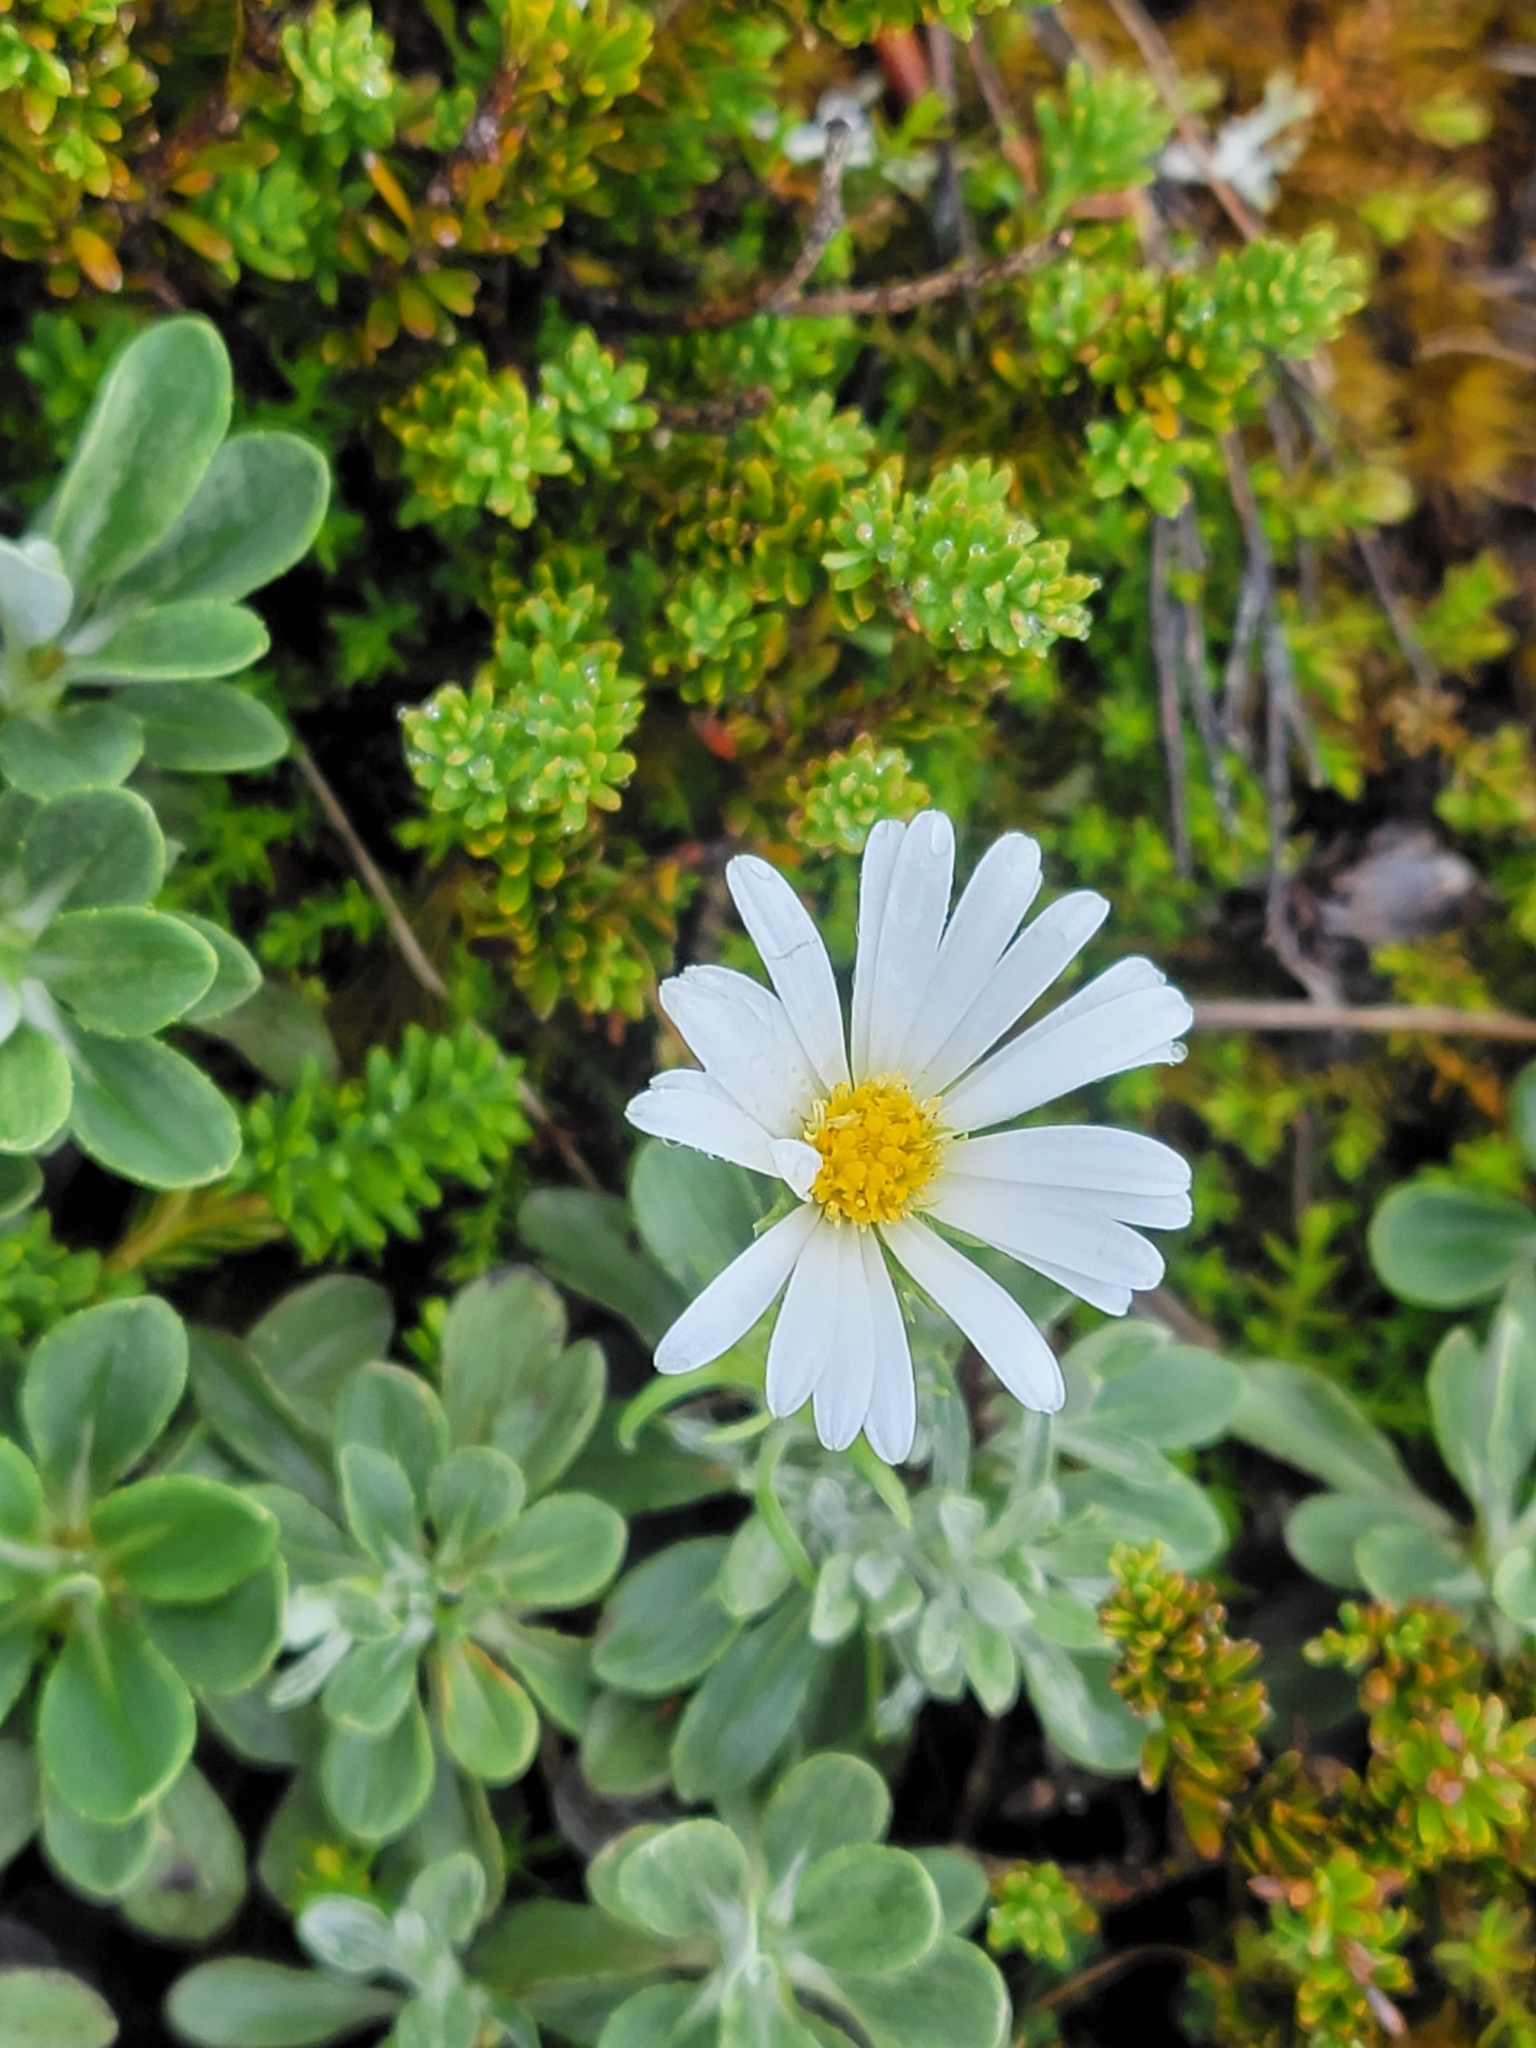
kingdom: Plantae
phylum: Tracheophyta
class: Magnoliopsida
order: Asterales
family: Asteraceae
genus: Celmisia
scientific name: Celmisia durietzii
